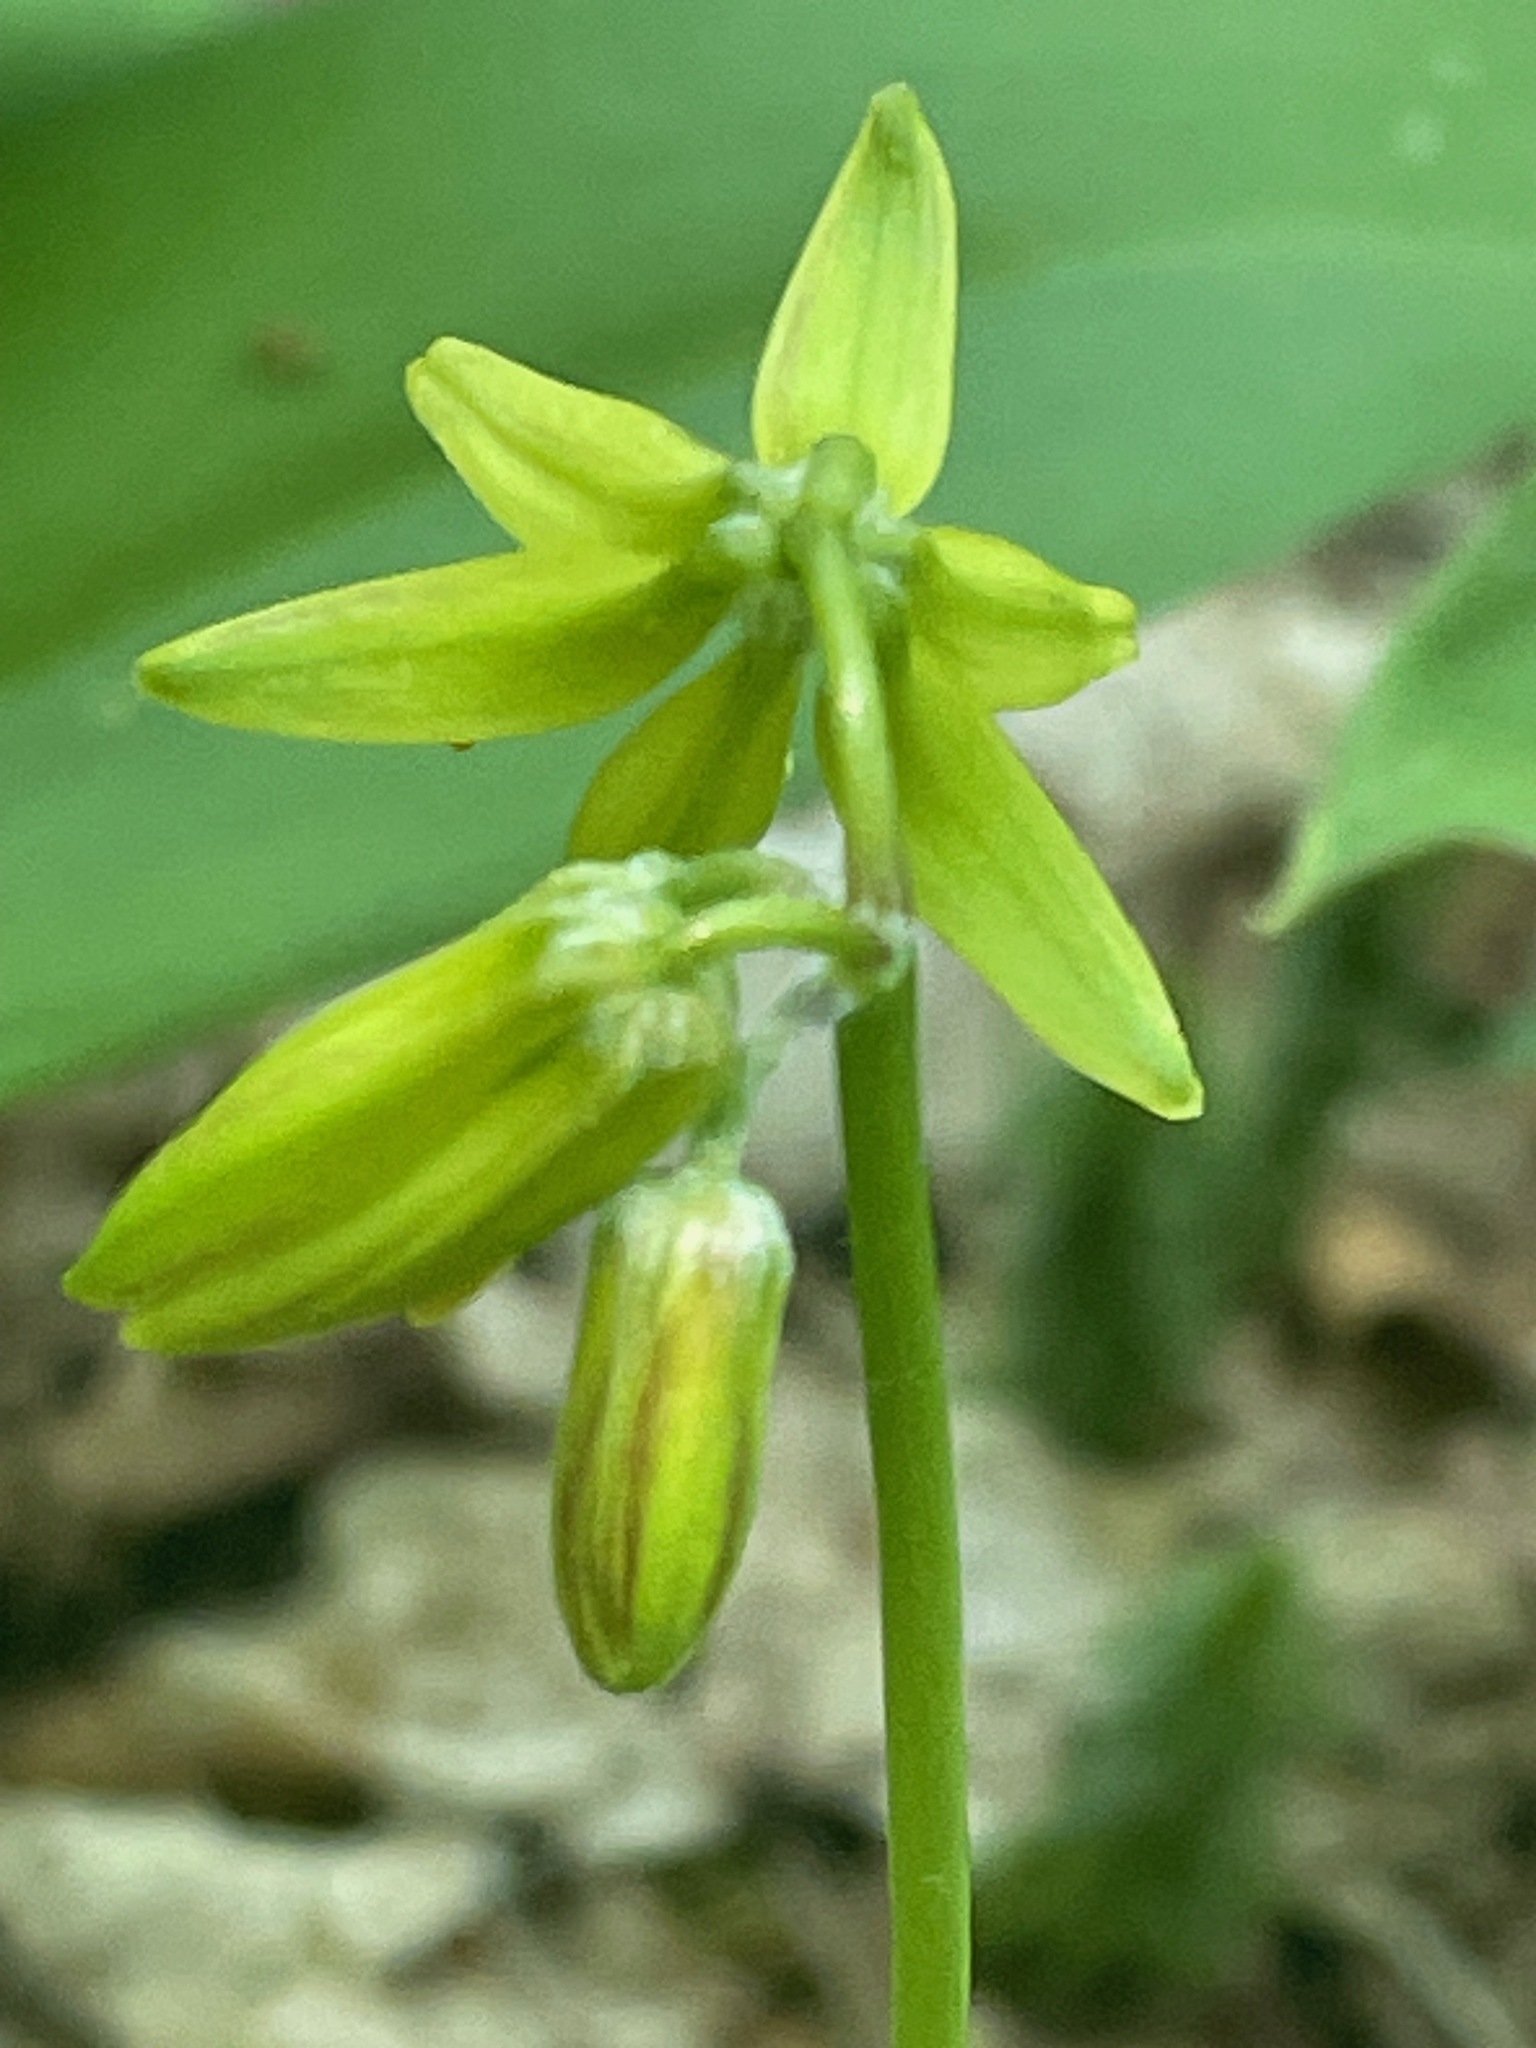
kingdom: Plantae
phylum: Tracheophyta
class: Liliopsida
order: Liliales
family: Liliaceae
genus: Clintonia
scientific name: Clintonia borealis
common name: Yellow clintonia
